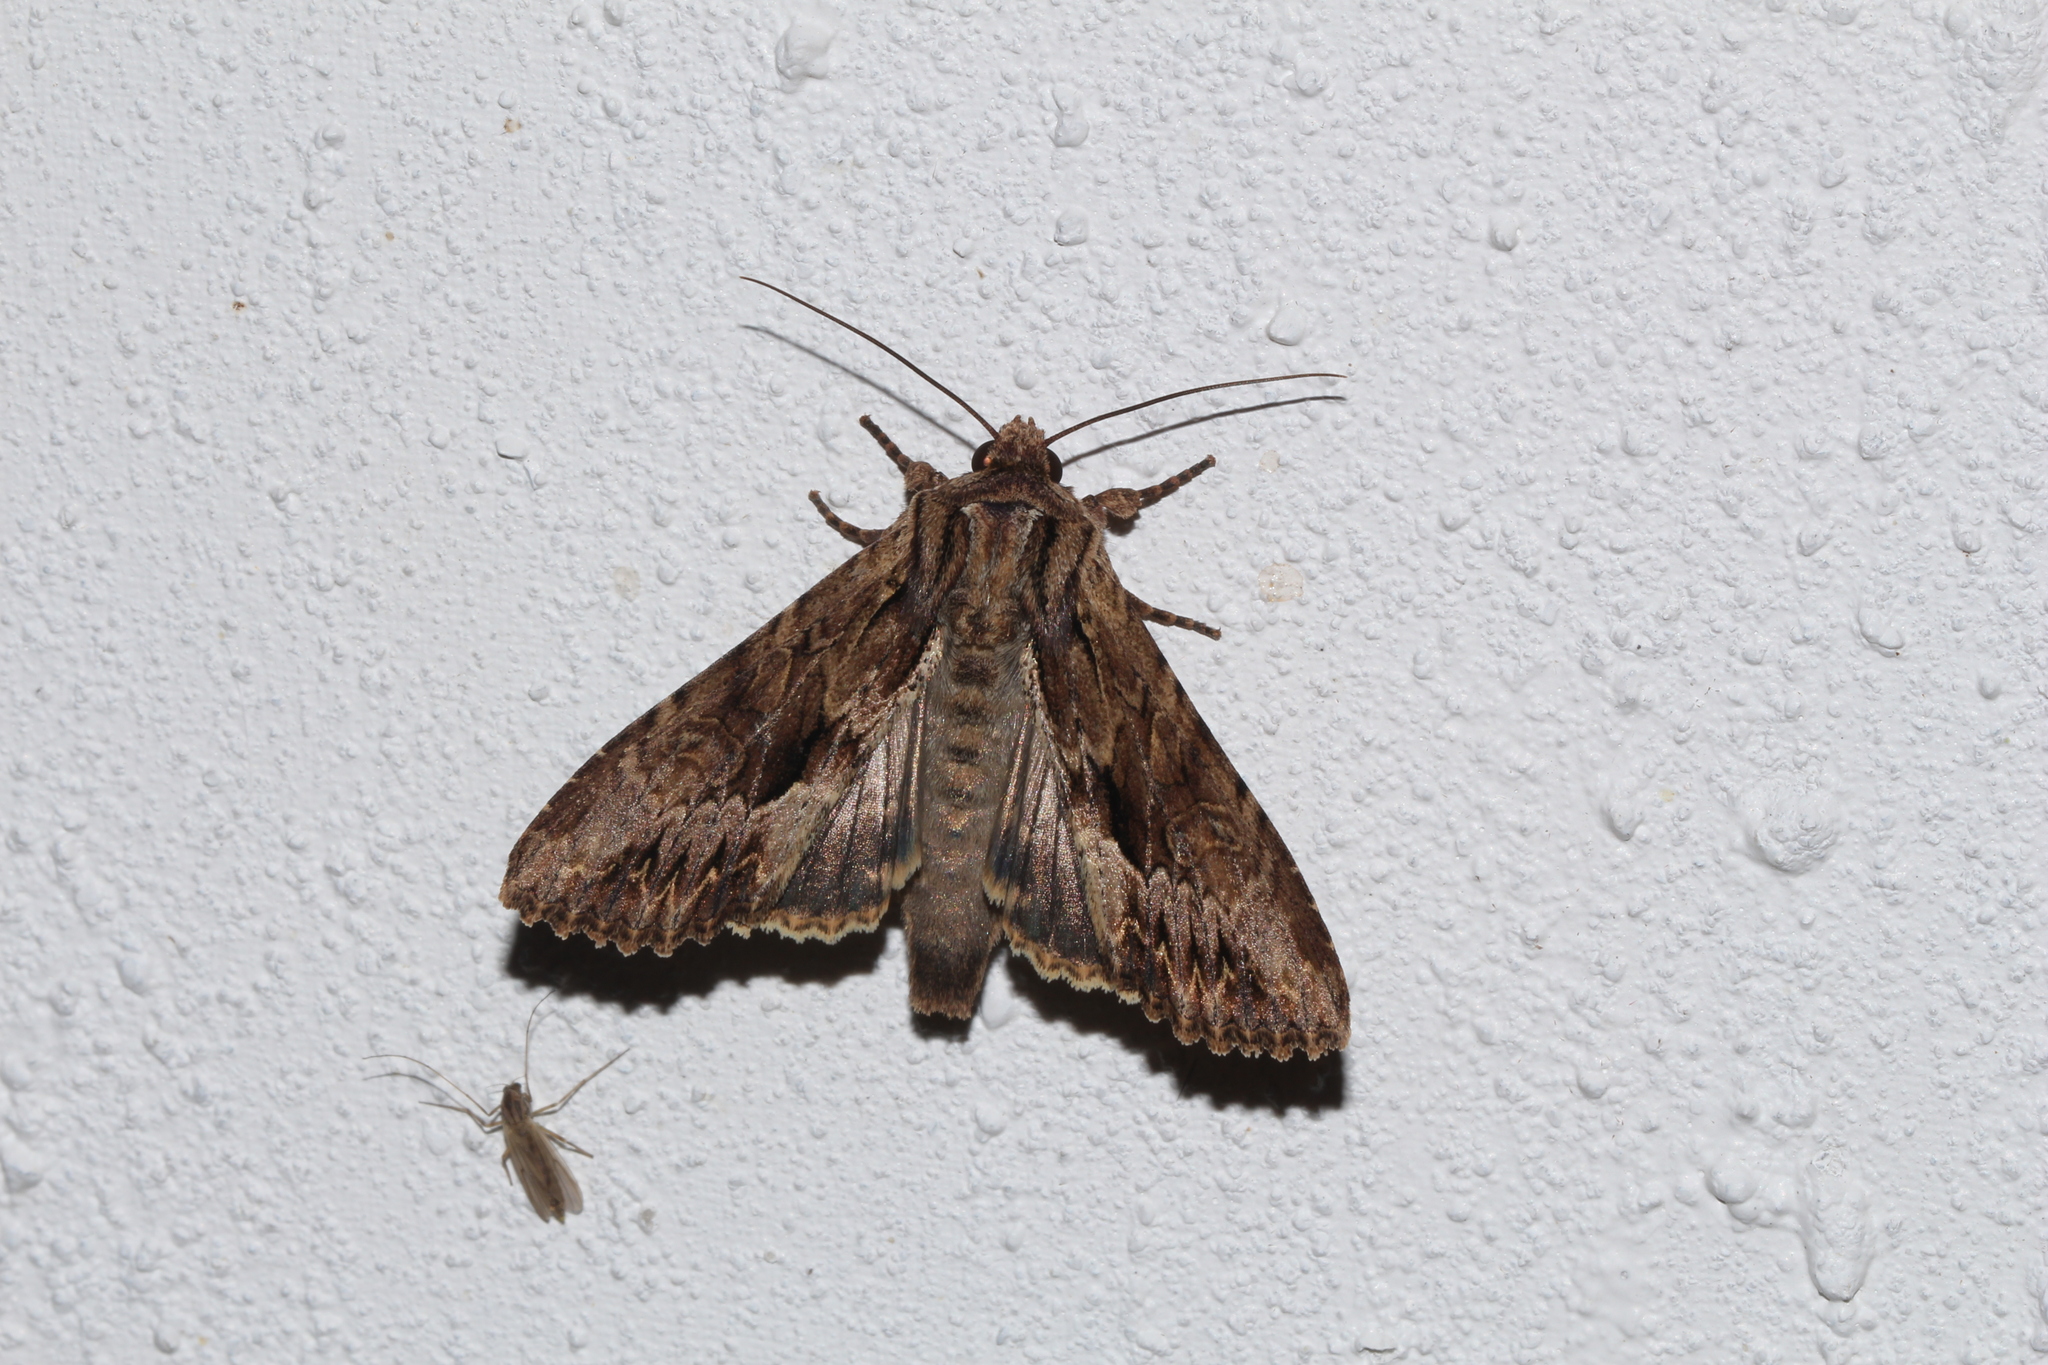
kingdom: Animalia
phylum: Arthropoda
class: Insecta
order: Lepidoptera
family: Noctuidae
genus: Apamea
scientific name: Apamea monoglypha
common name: Dark arches
